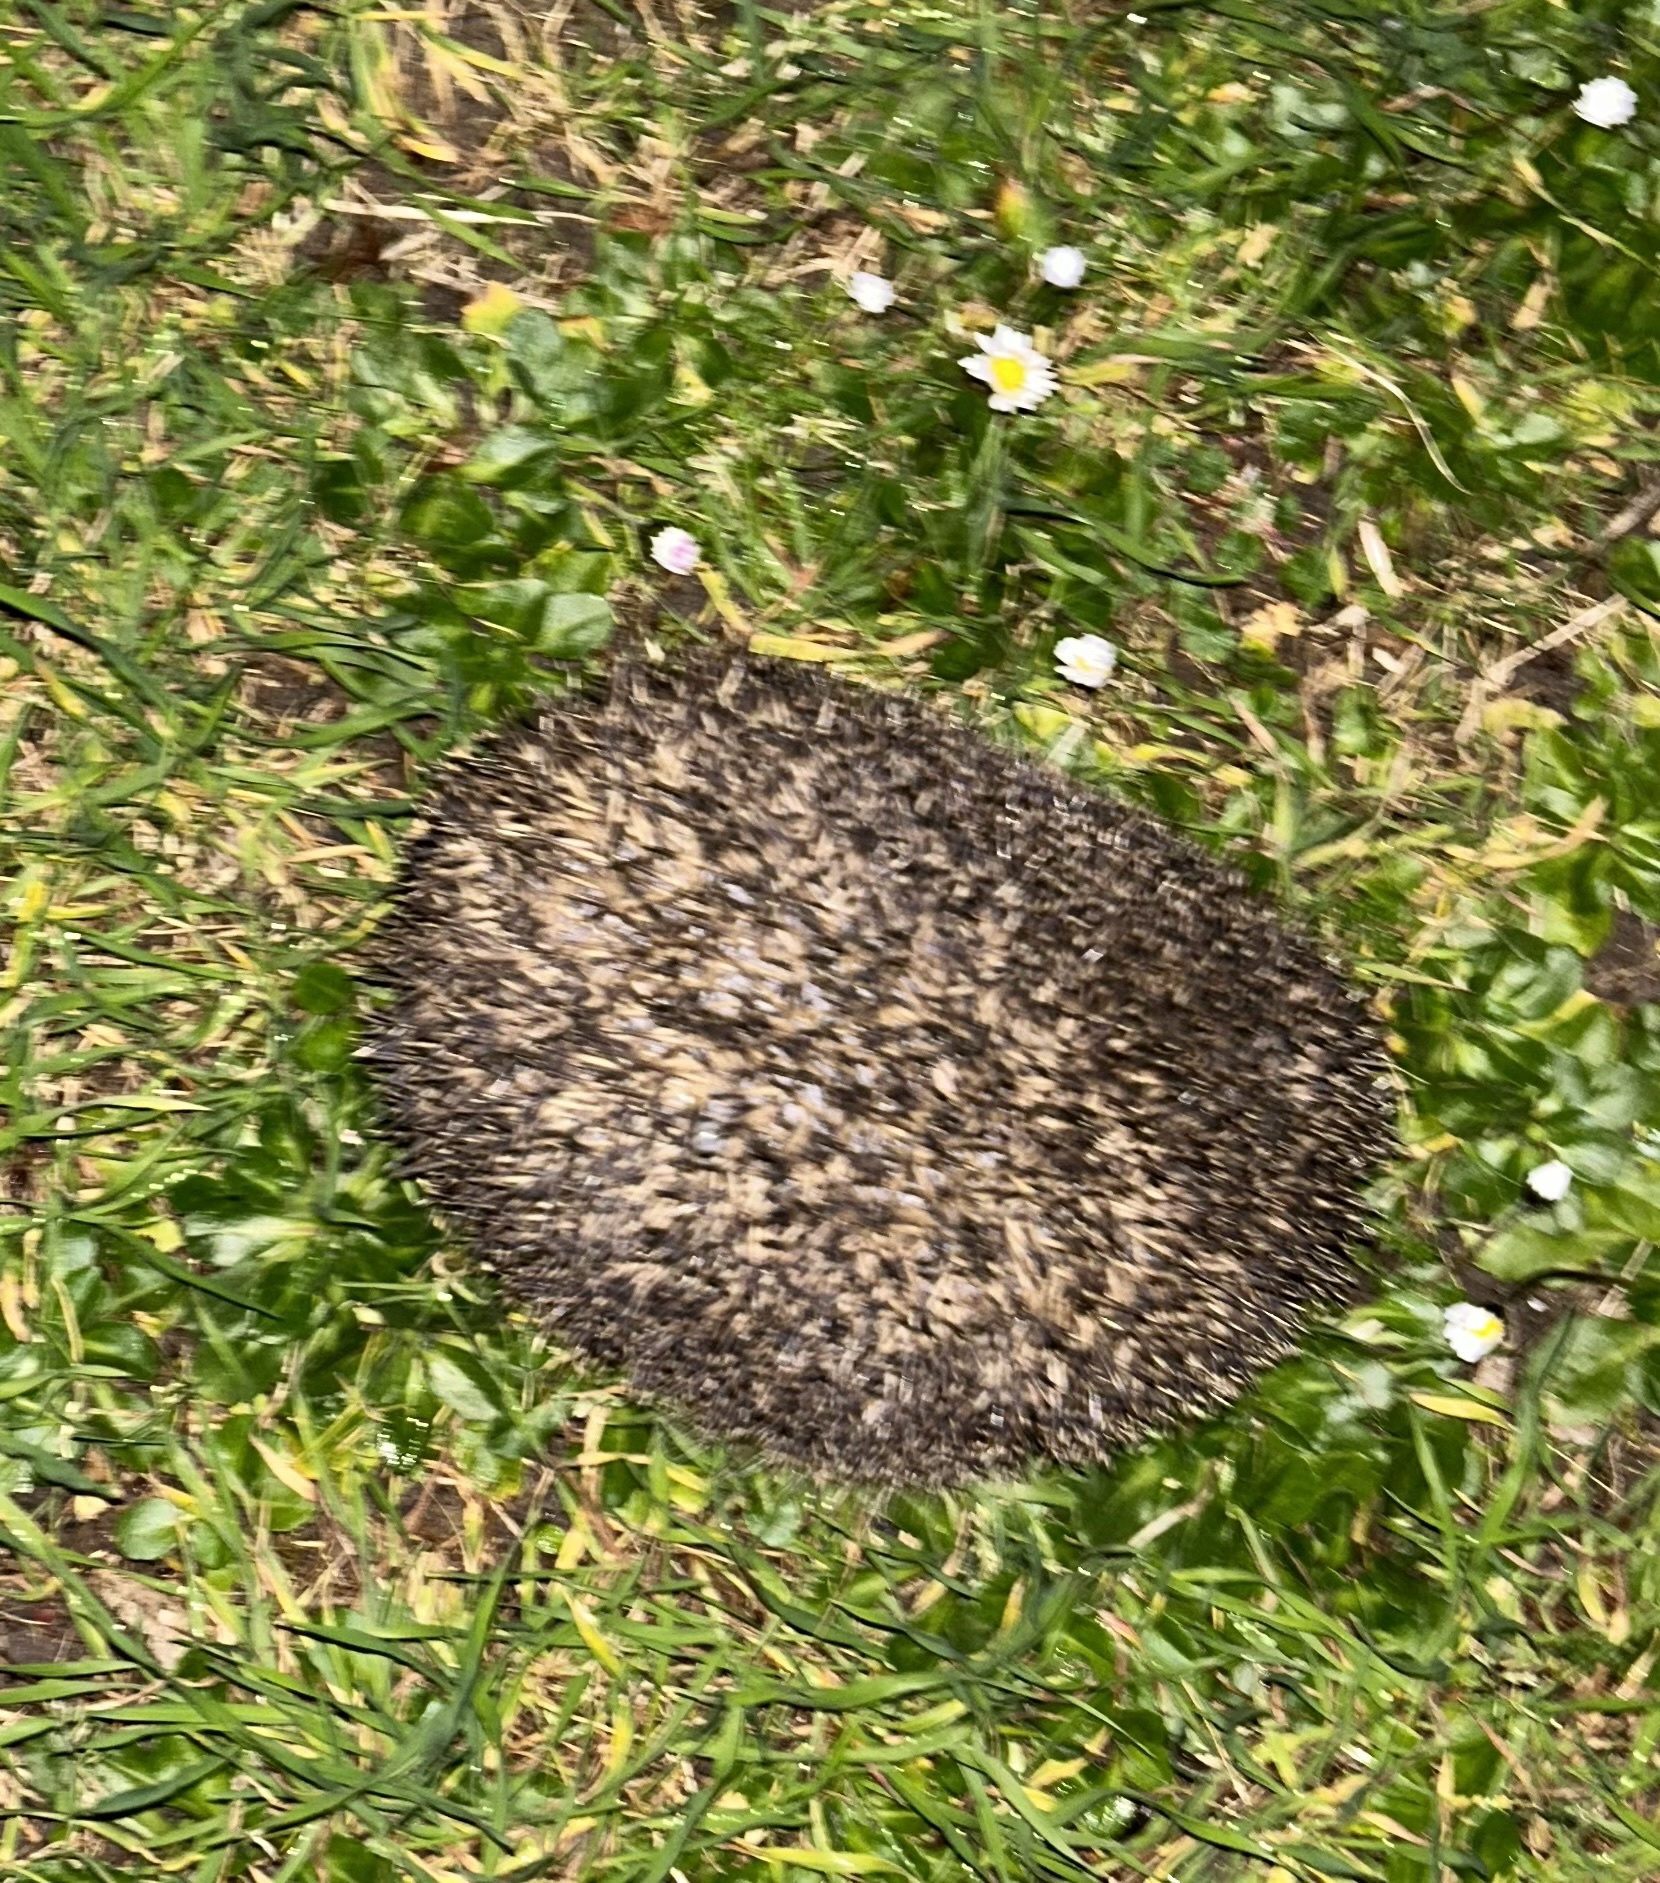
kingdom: Animalia
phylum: Chordata
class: Mammalia
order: Erinaceomorpha
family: Erinaceidae
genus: Erinaceus
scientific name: Erinaceus europaeus
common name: West european hedgehog
